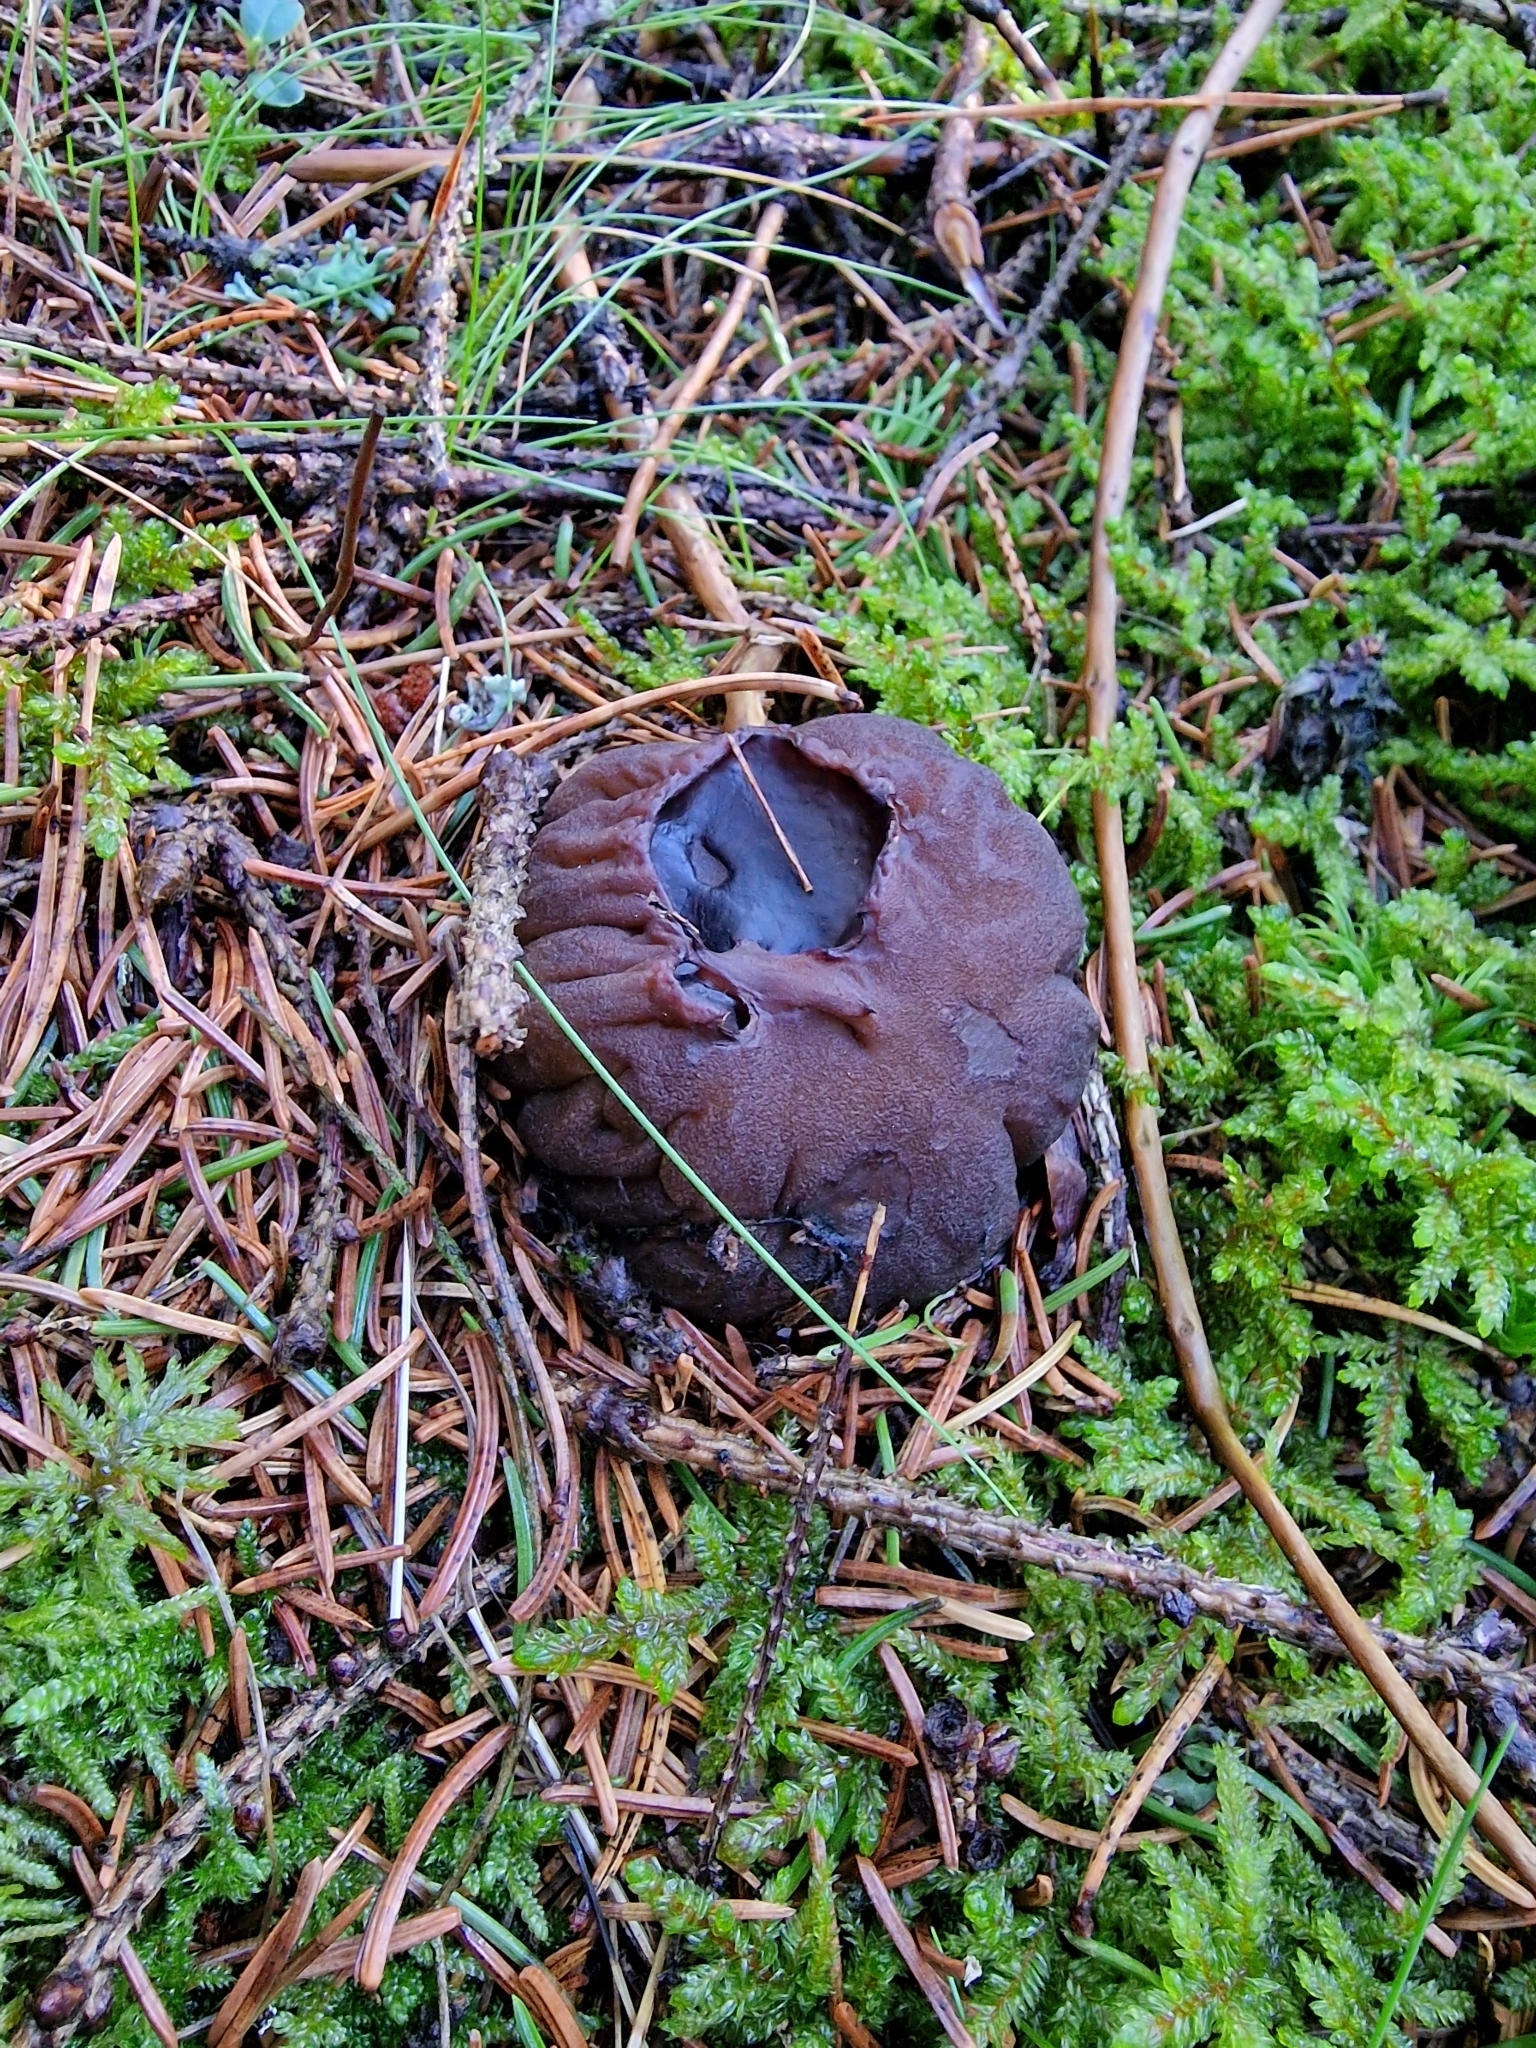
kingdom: Fungi
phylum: Ascomycota
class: Pezizomycetes
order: Pezizales
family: Sarcosomataceae
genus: Sarcosoma
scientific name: Sarcosoma globosum
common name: Charred-pancake cup
